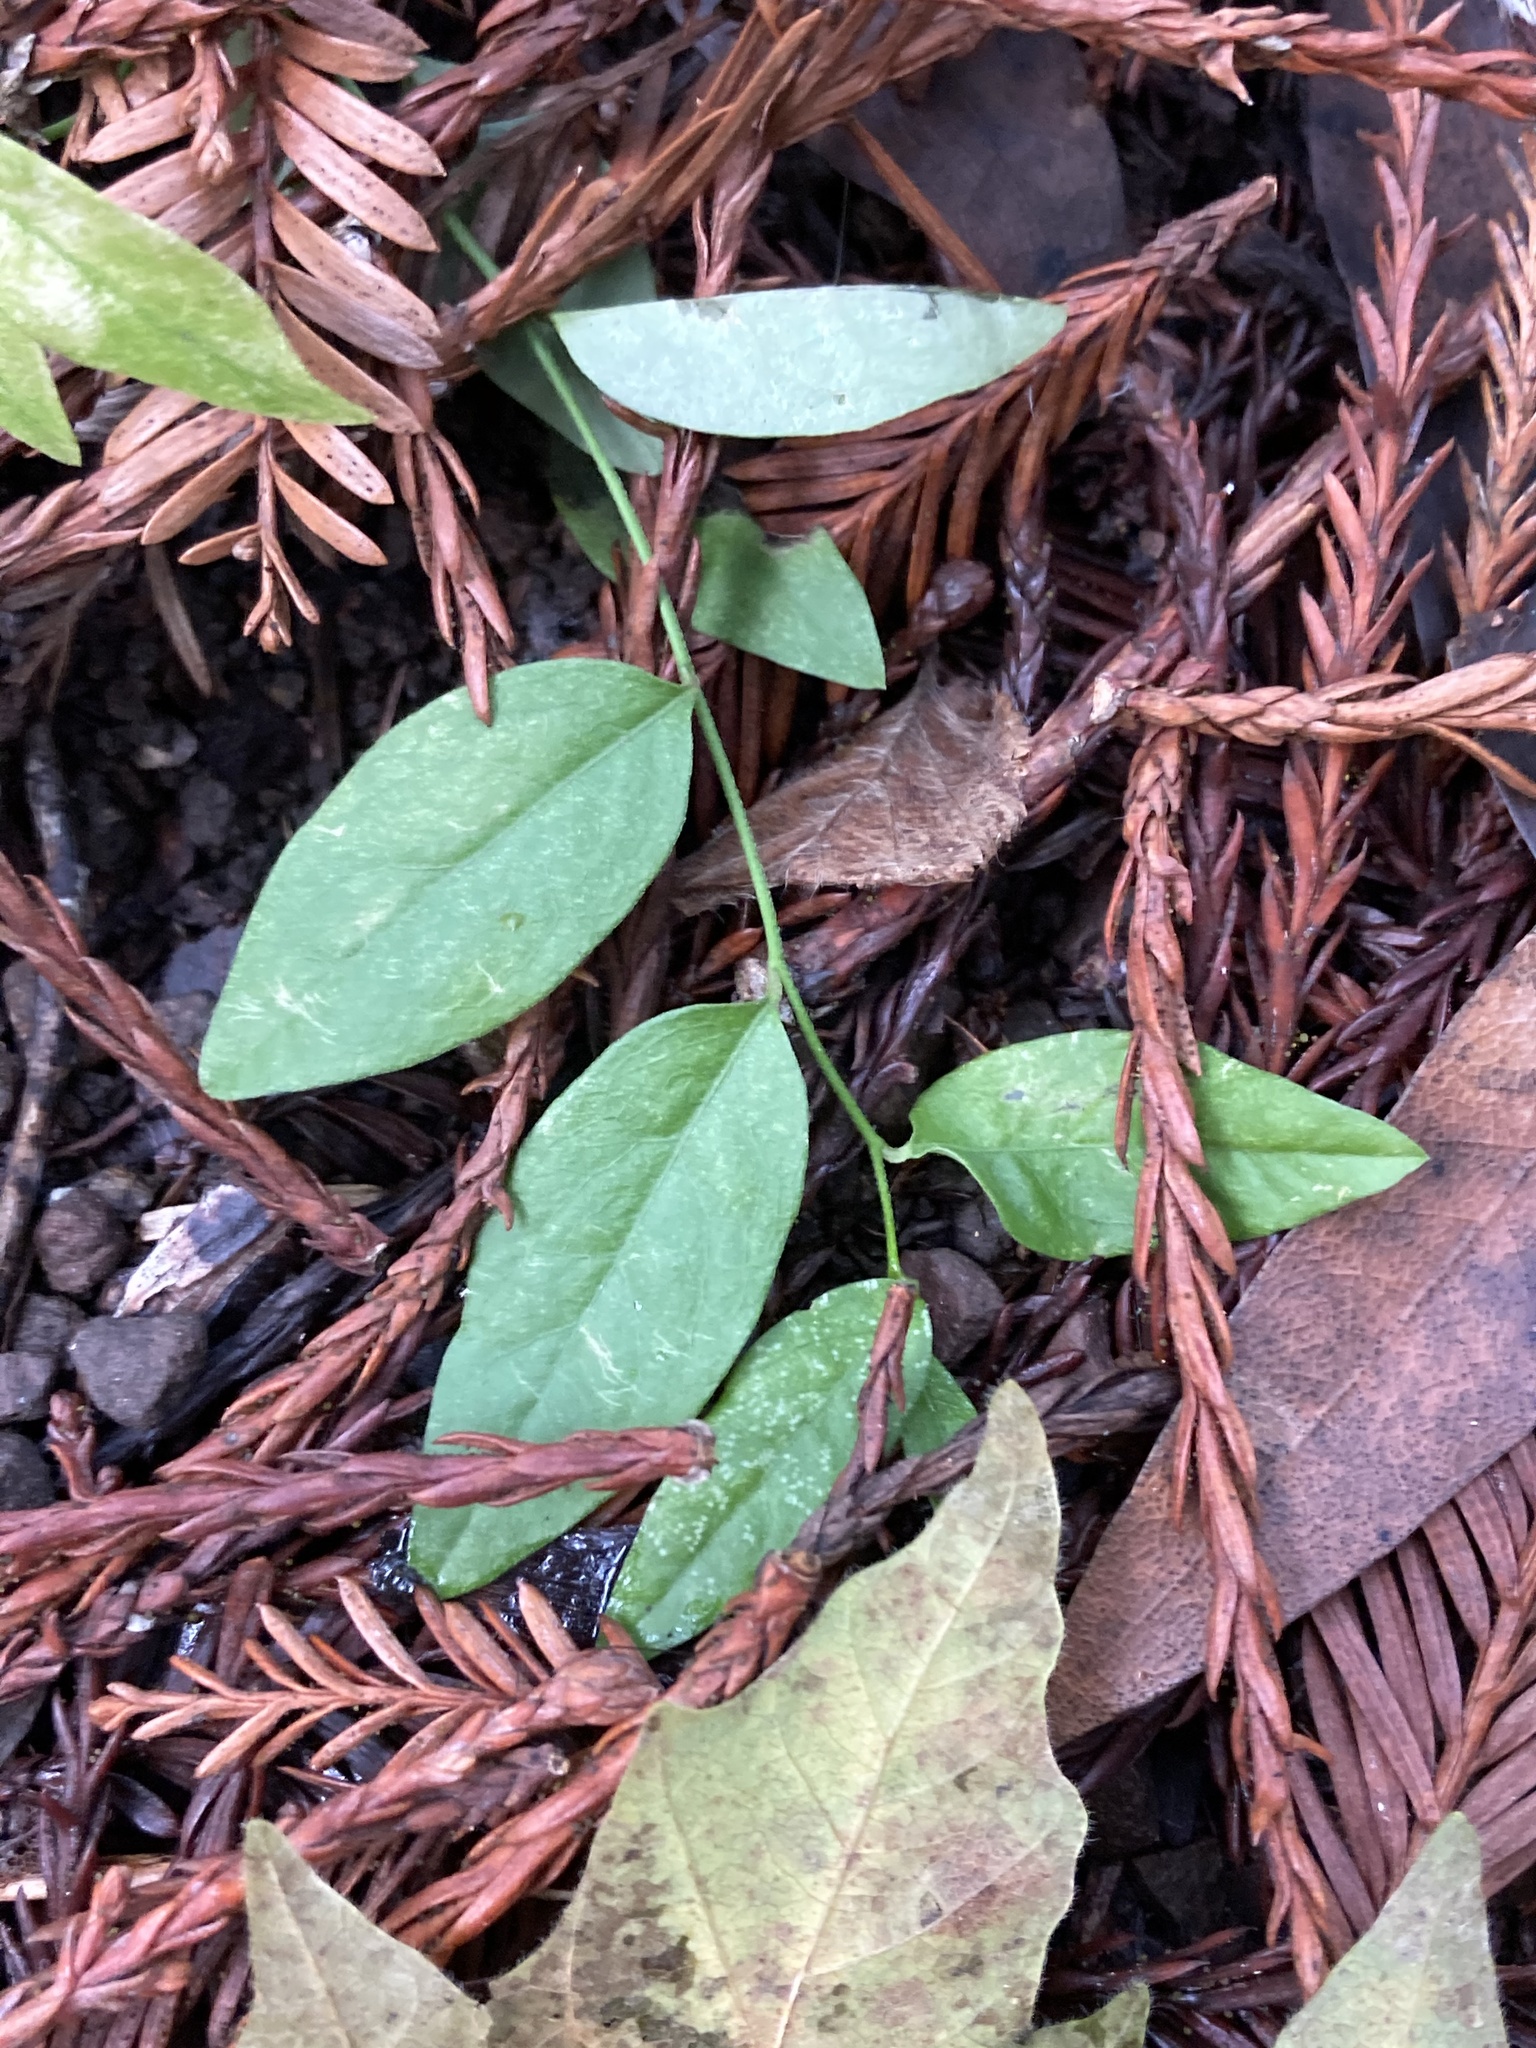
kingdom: Plantae
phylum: Tracheophyta
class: Magnoliopsida
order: Fabales
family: Polygalaceae
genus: Rhinotropis
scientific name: Rhinotropis californica
